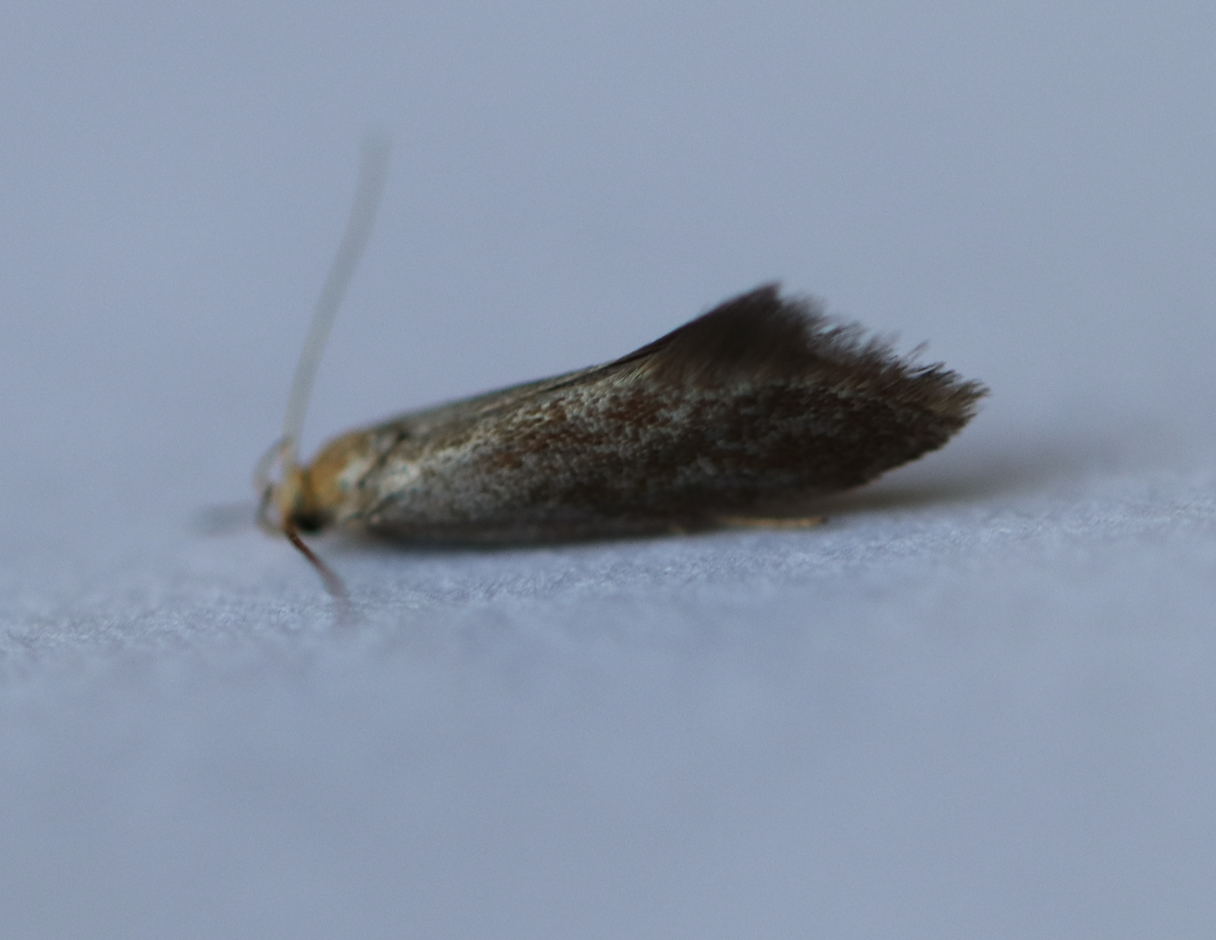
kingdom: Animalia
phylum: Arthropoda
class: Insecta
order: Lepidoptera
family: Oecophoridae
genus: Borkhausenia
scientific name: Borkhausenia Crassa tinctella
